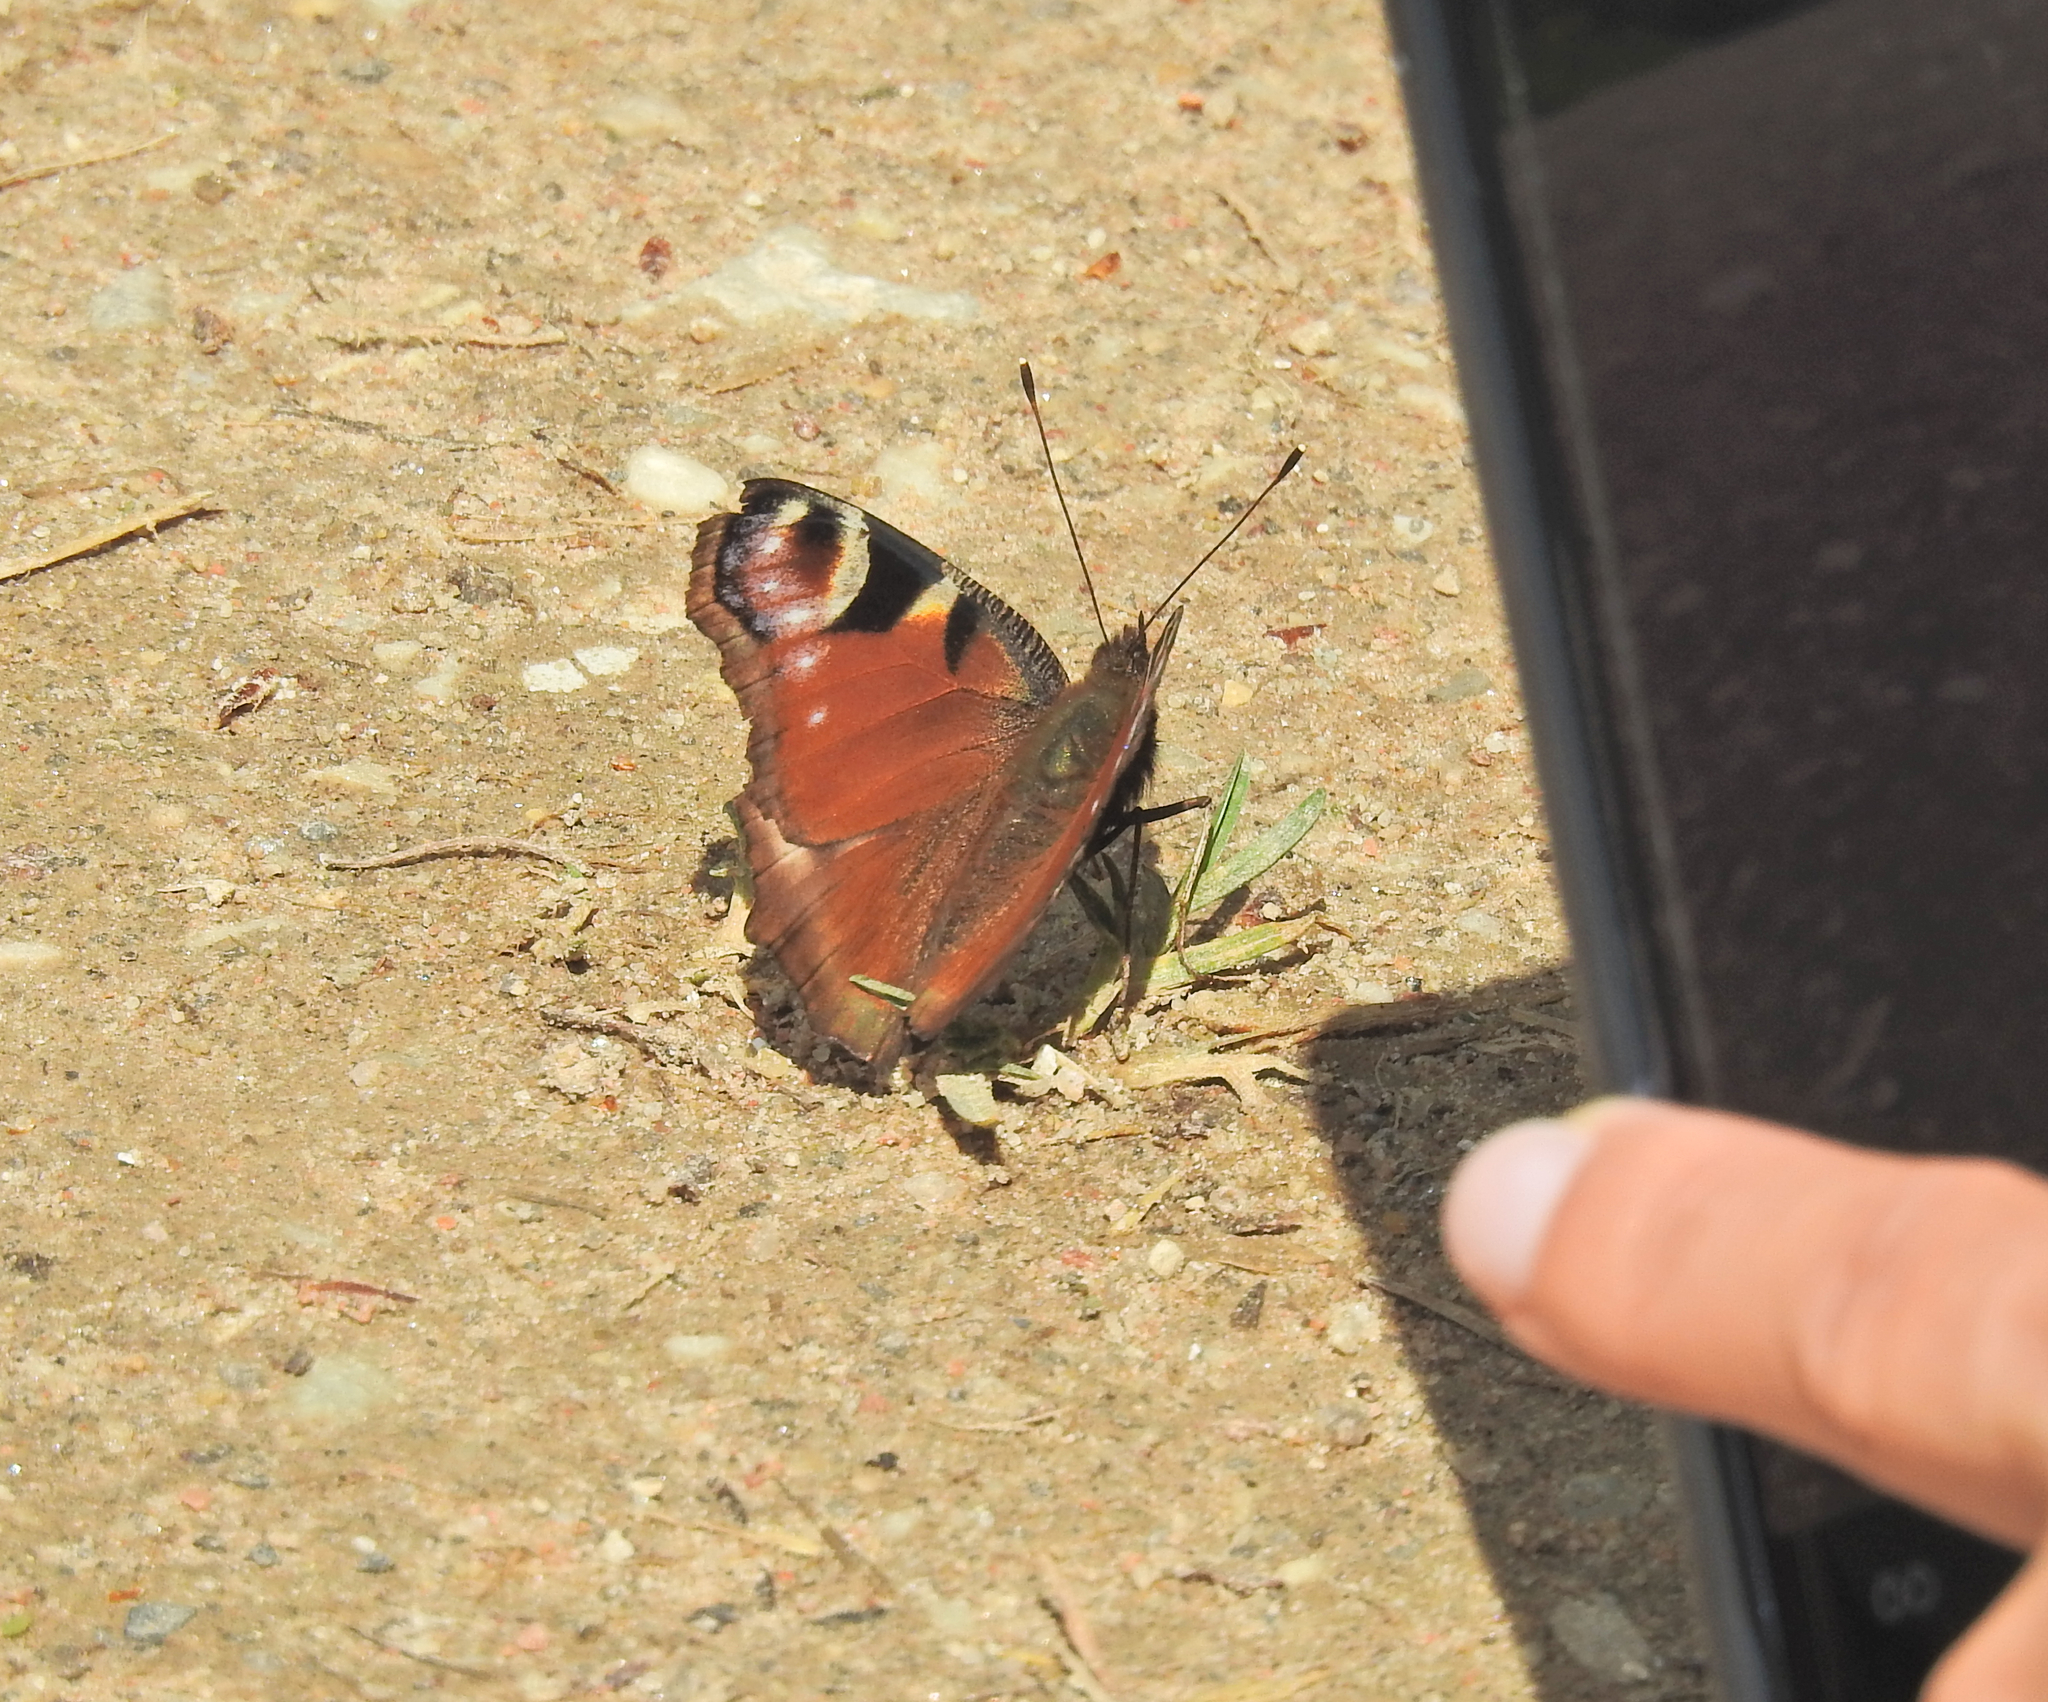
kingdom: Animalia
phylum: Arthropoda
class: Insecta
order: Lepidoptera
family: Nymphalidae
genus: Aglais
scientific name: Aglais io
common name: Peacock
